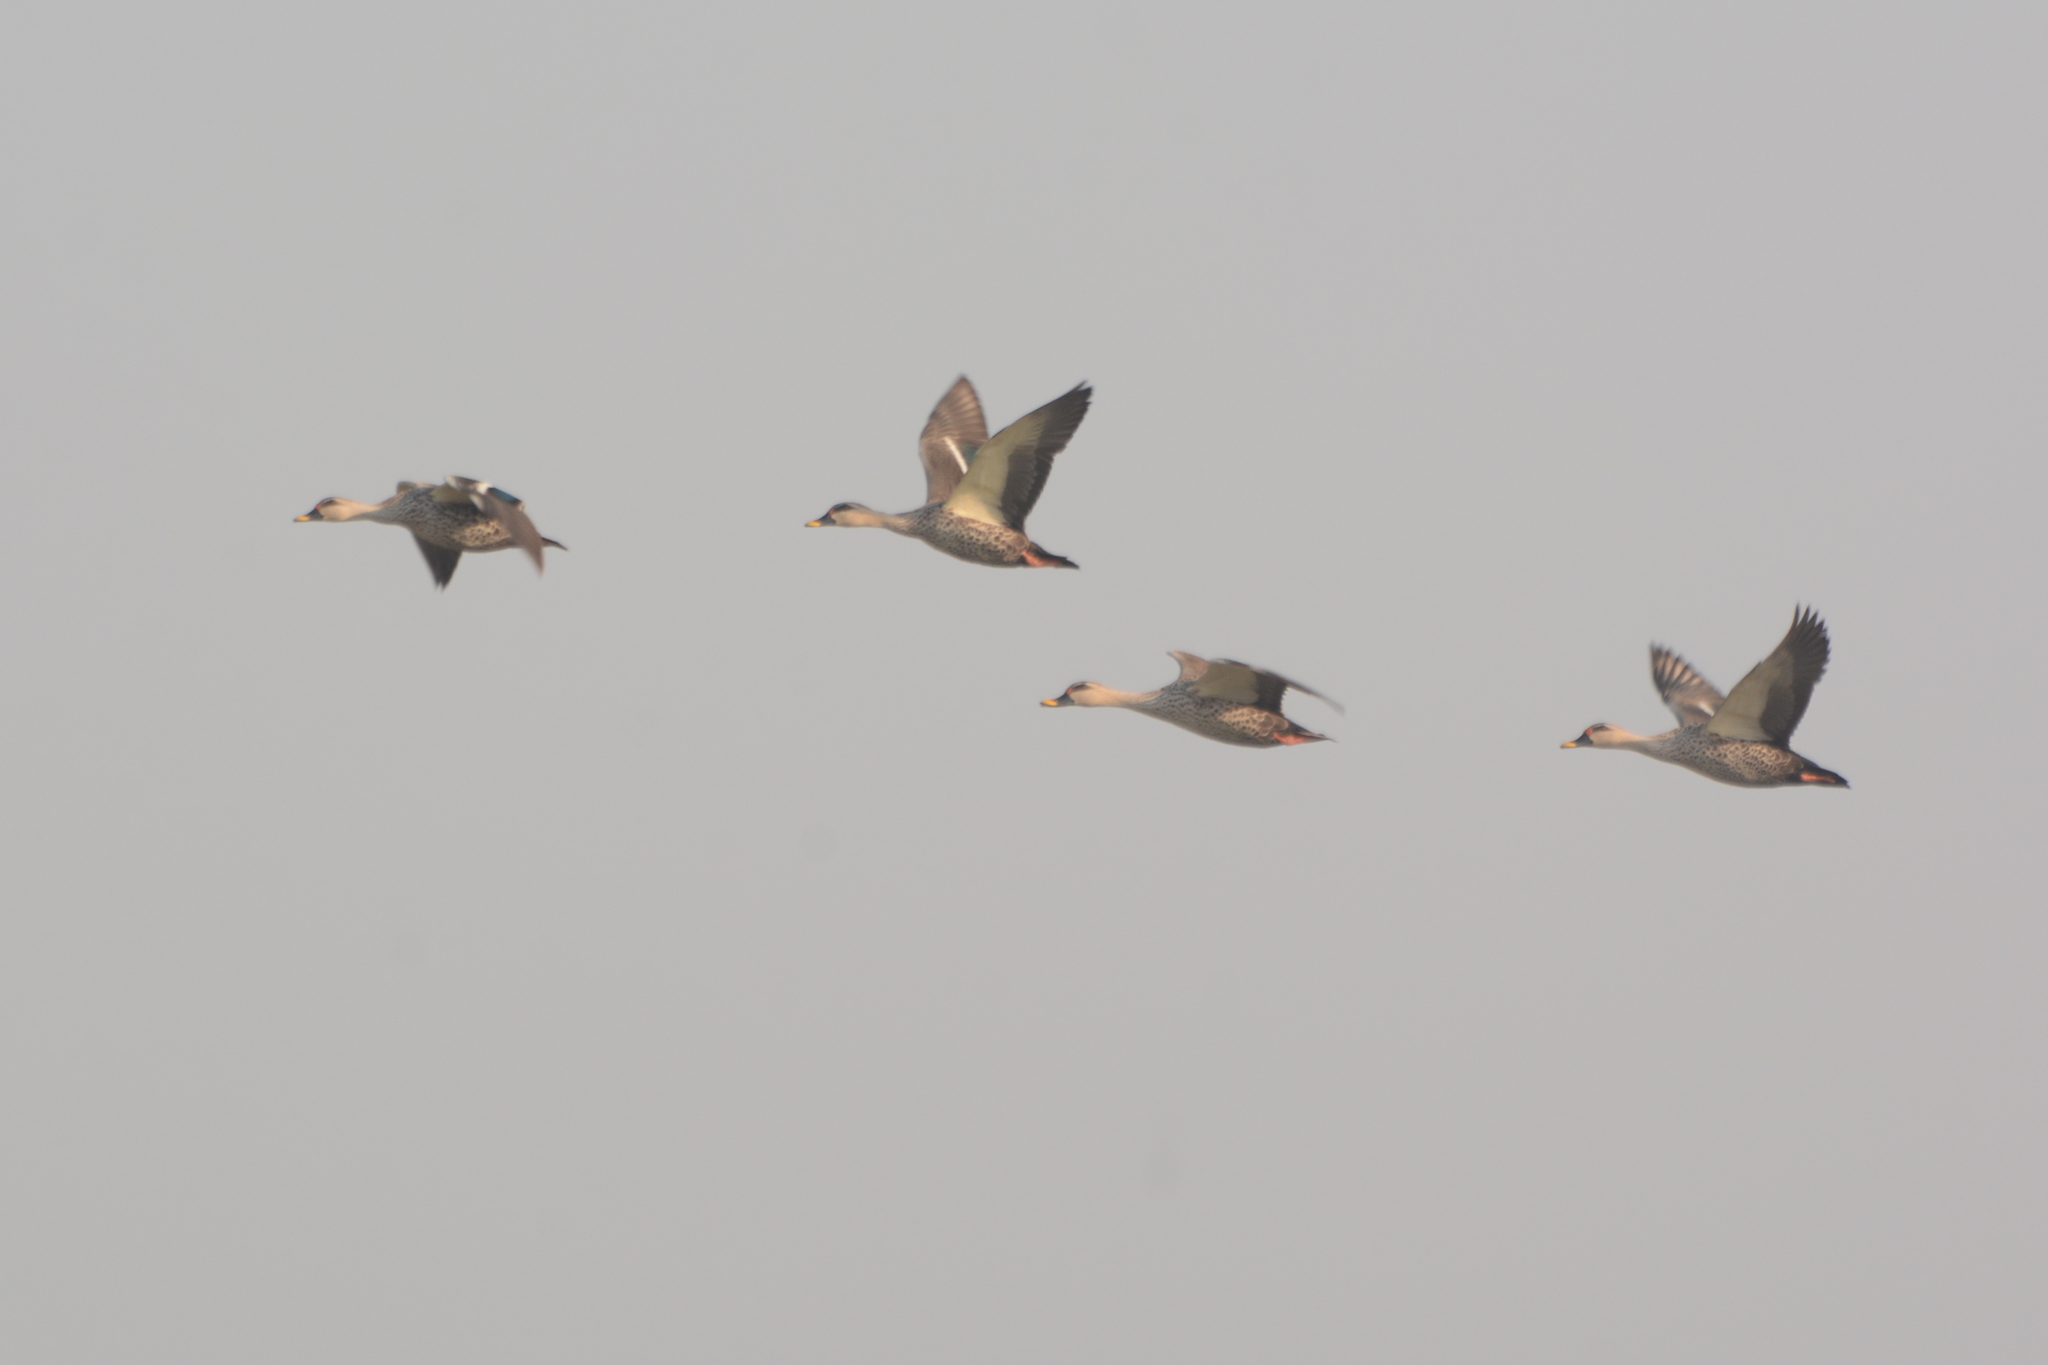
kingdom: Animalia
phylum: Chordata
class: Aves
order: Anseriformes
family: Anatidae
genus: Anas
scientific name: Anas poecilorhyncha
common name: Indian spot-billed duck
